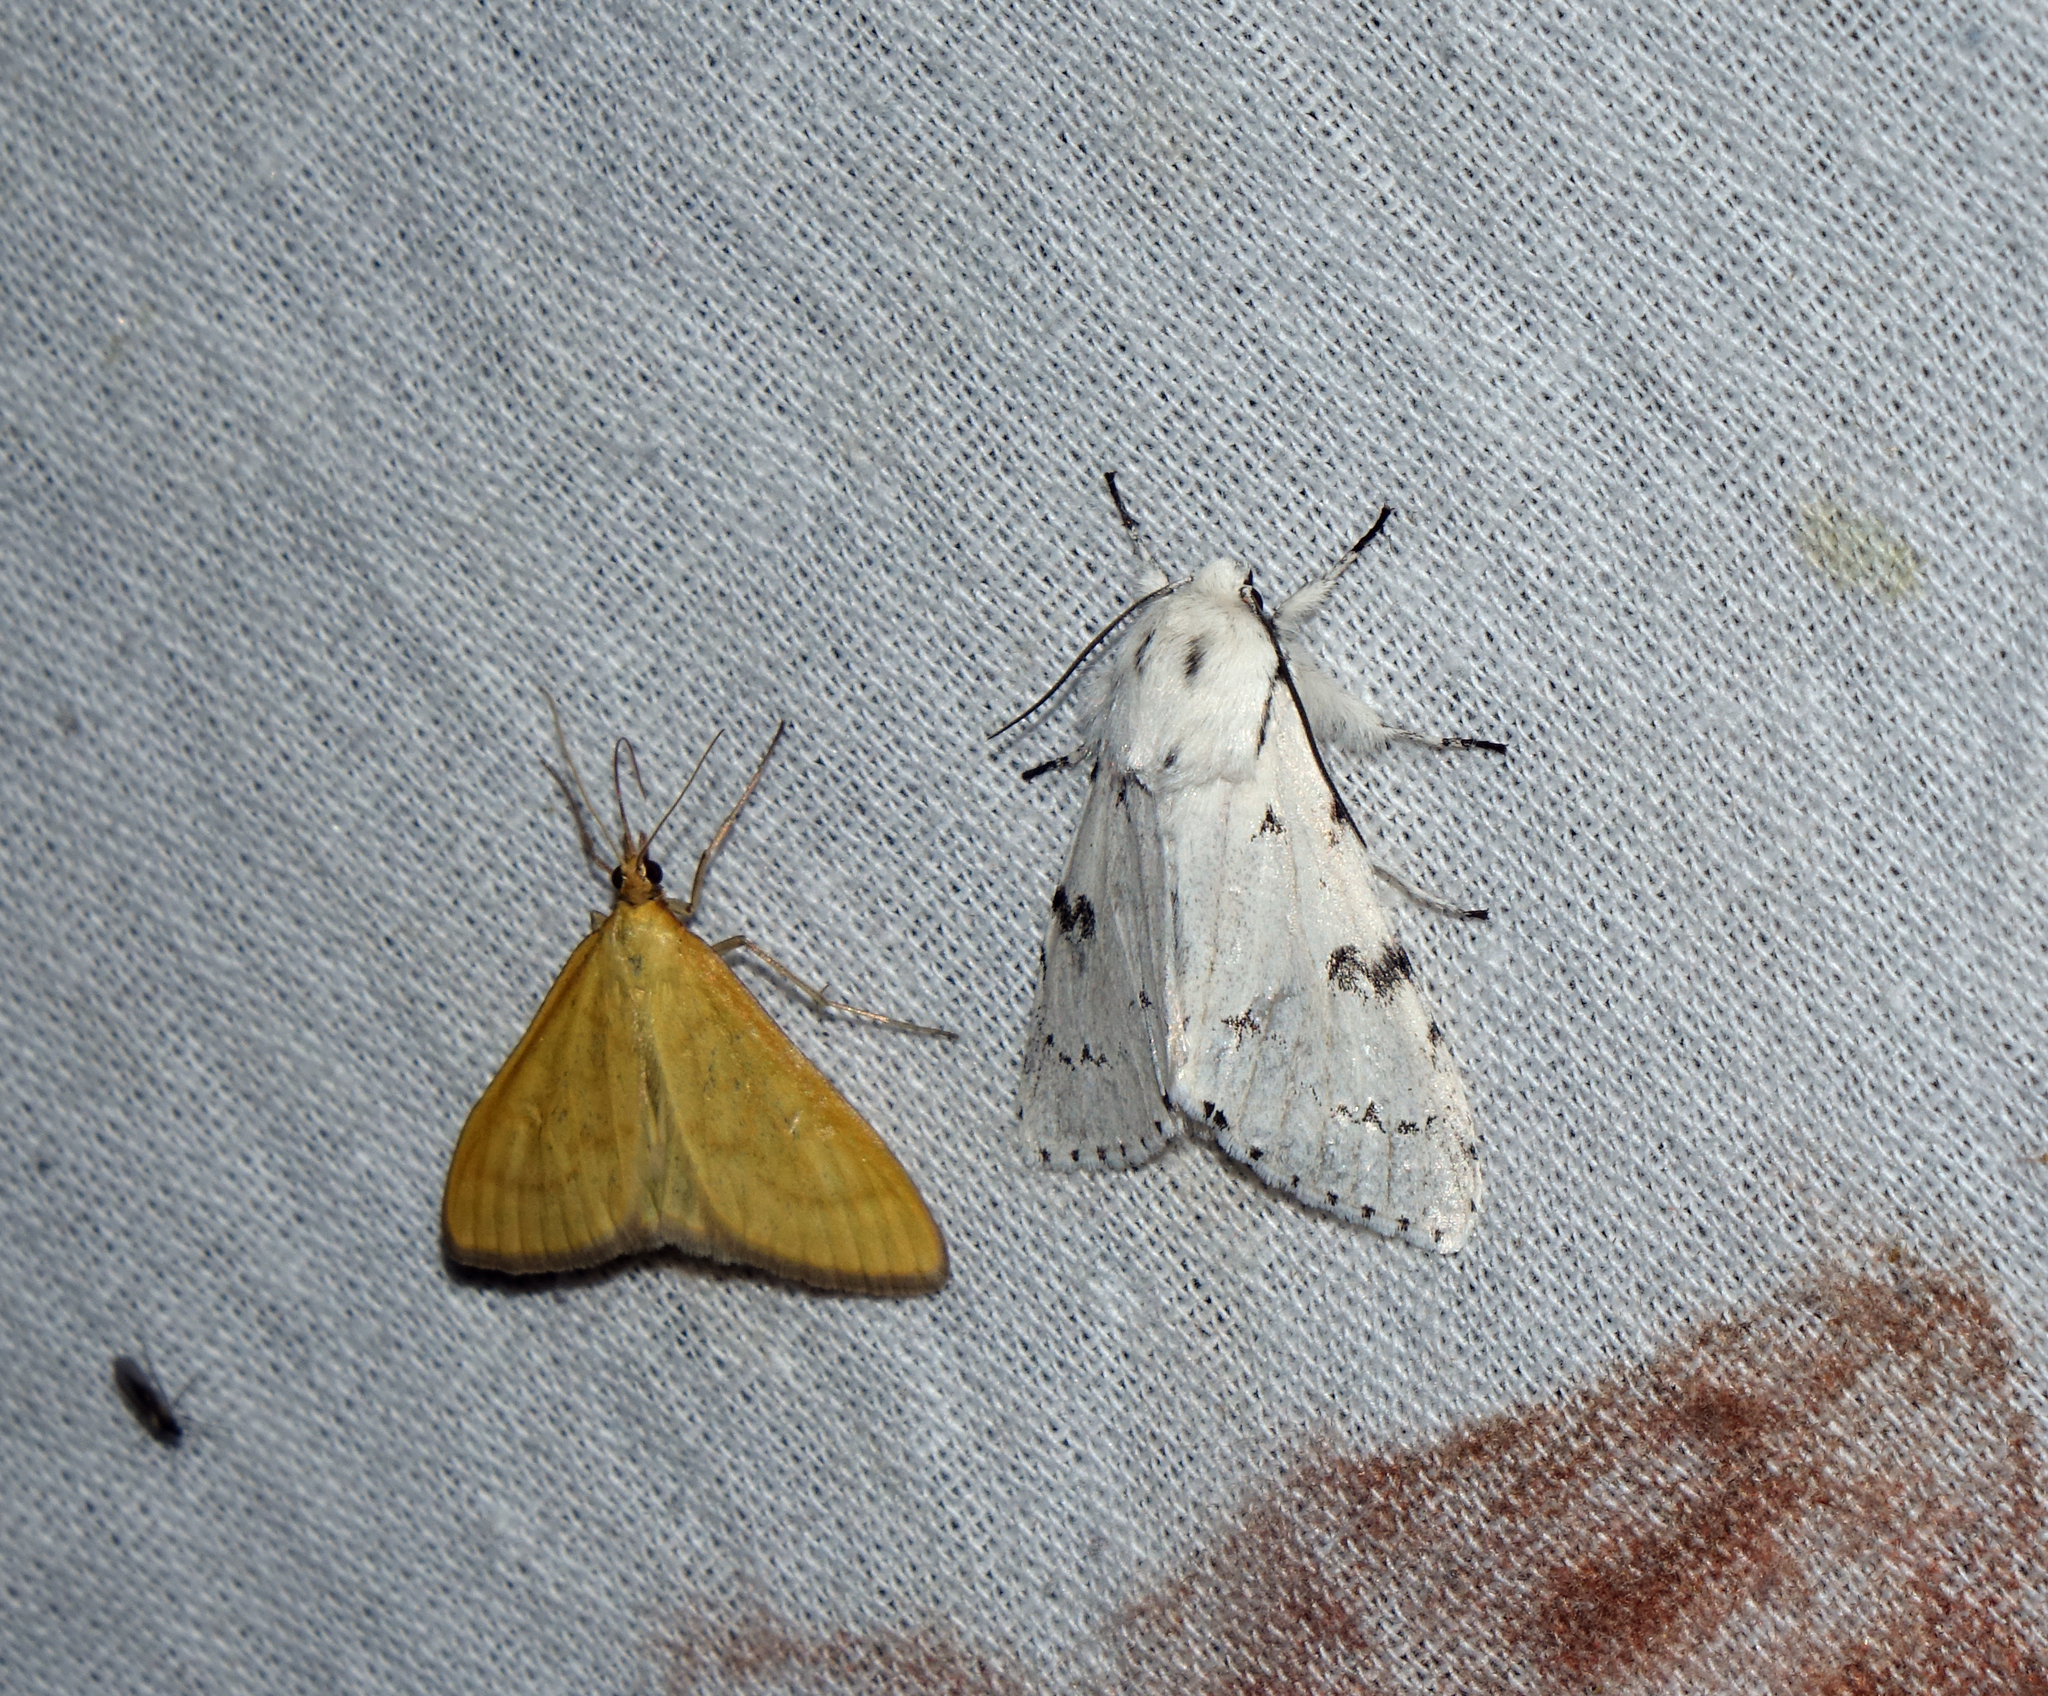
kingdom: Animalia
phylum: Arthropoda
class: Insecta
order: Lepidoptera
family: Noctuidae
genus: Acronicta
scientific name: Acronicta leporina
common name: Miller
